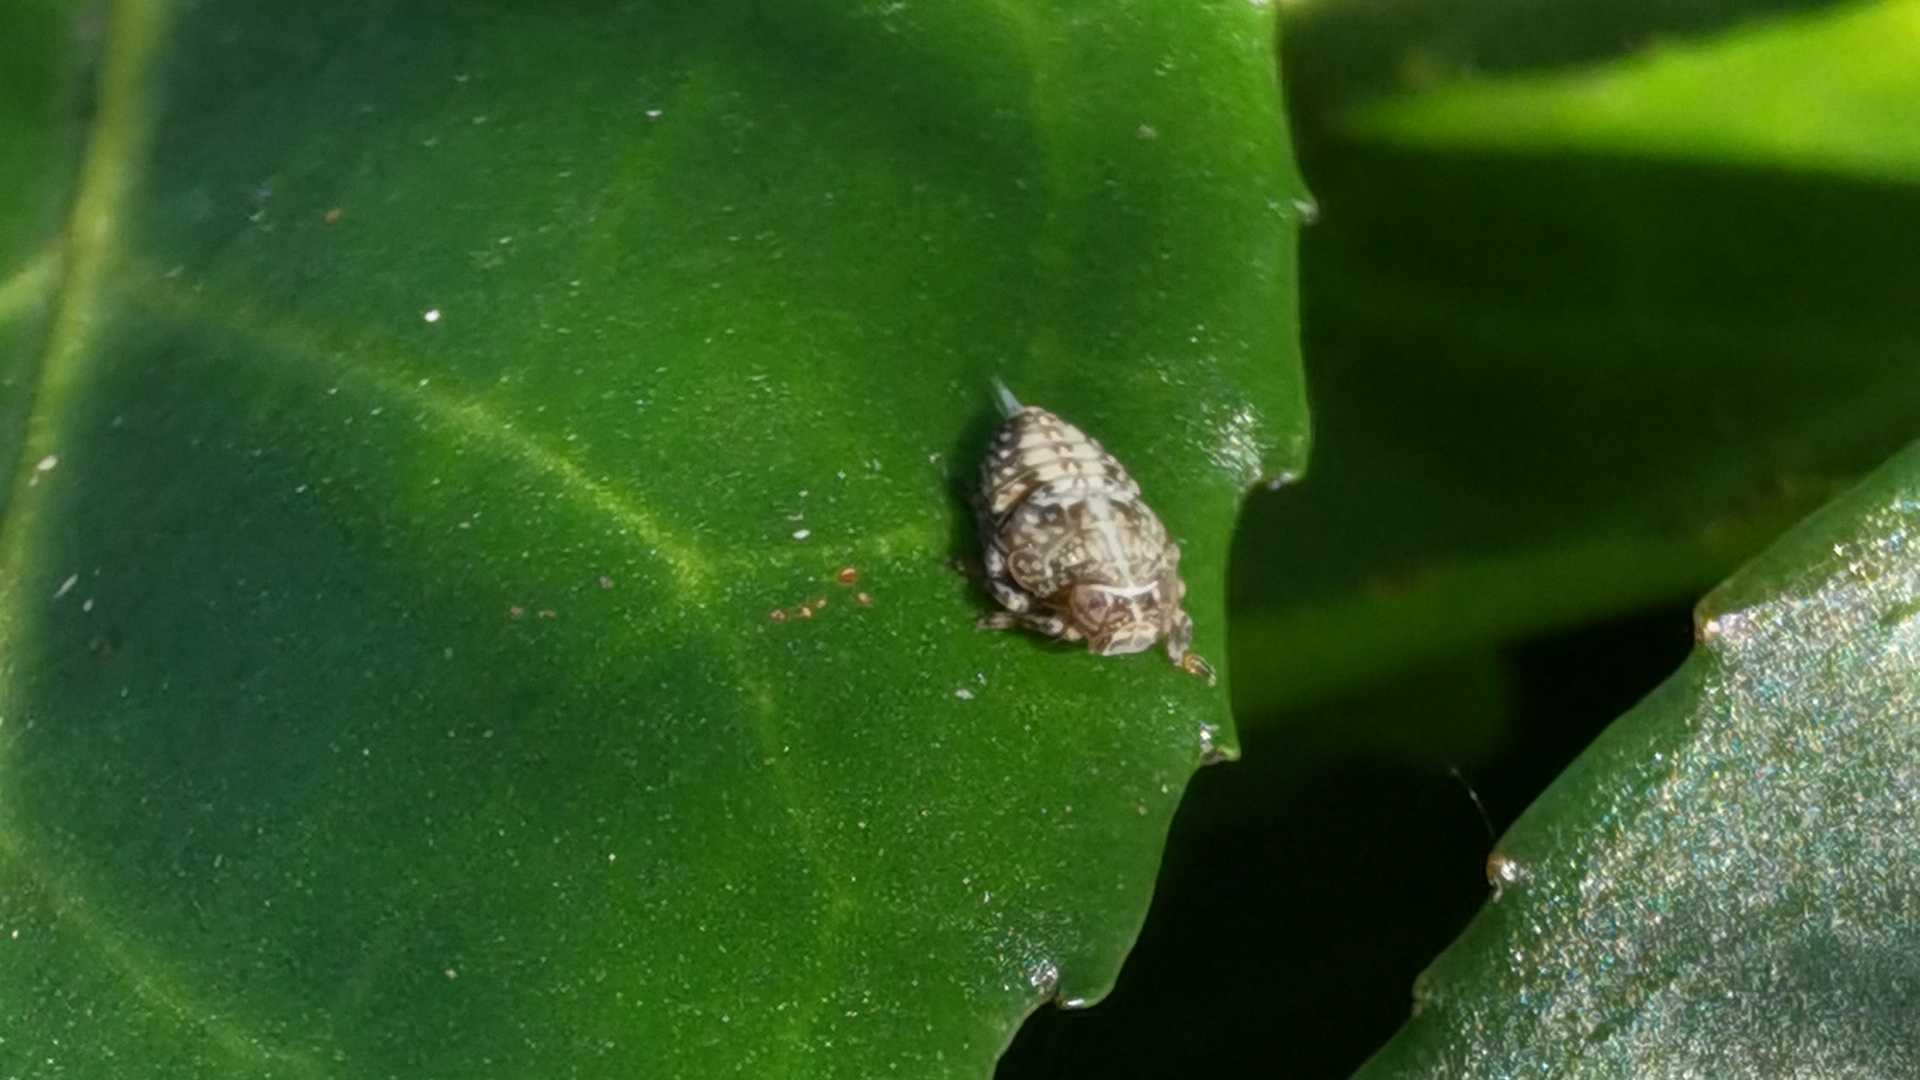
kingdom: Animalia
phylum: Arthropoda
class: Insecta
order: Hemiptera
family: Issidae
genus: Issus
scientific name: Issus
